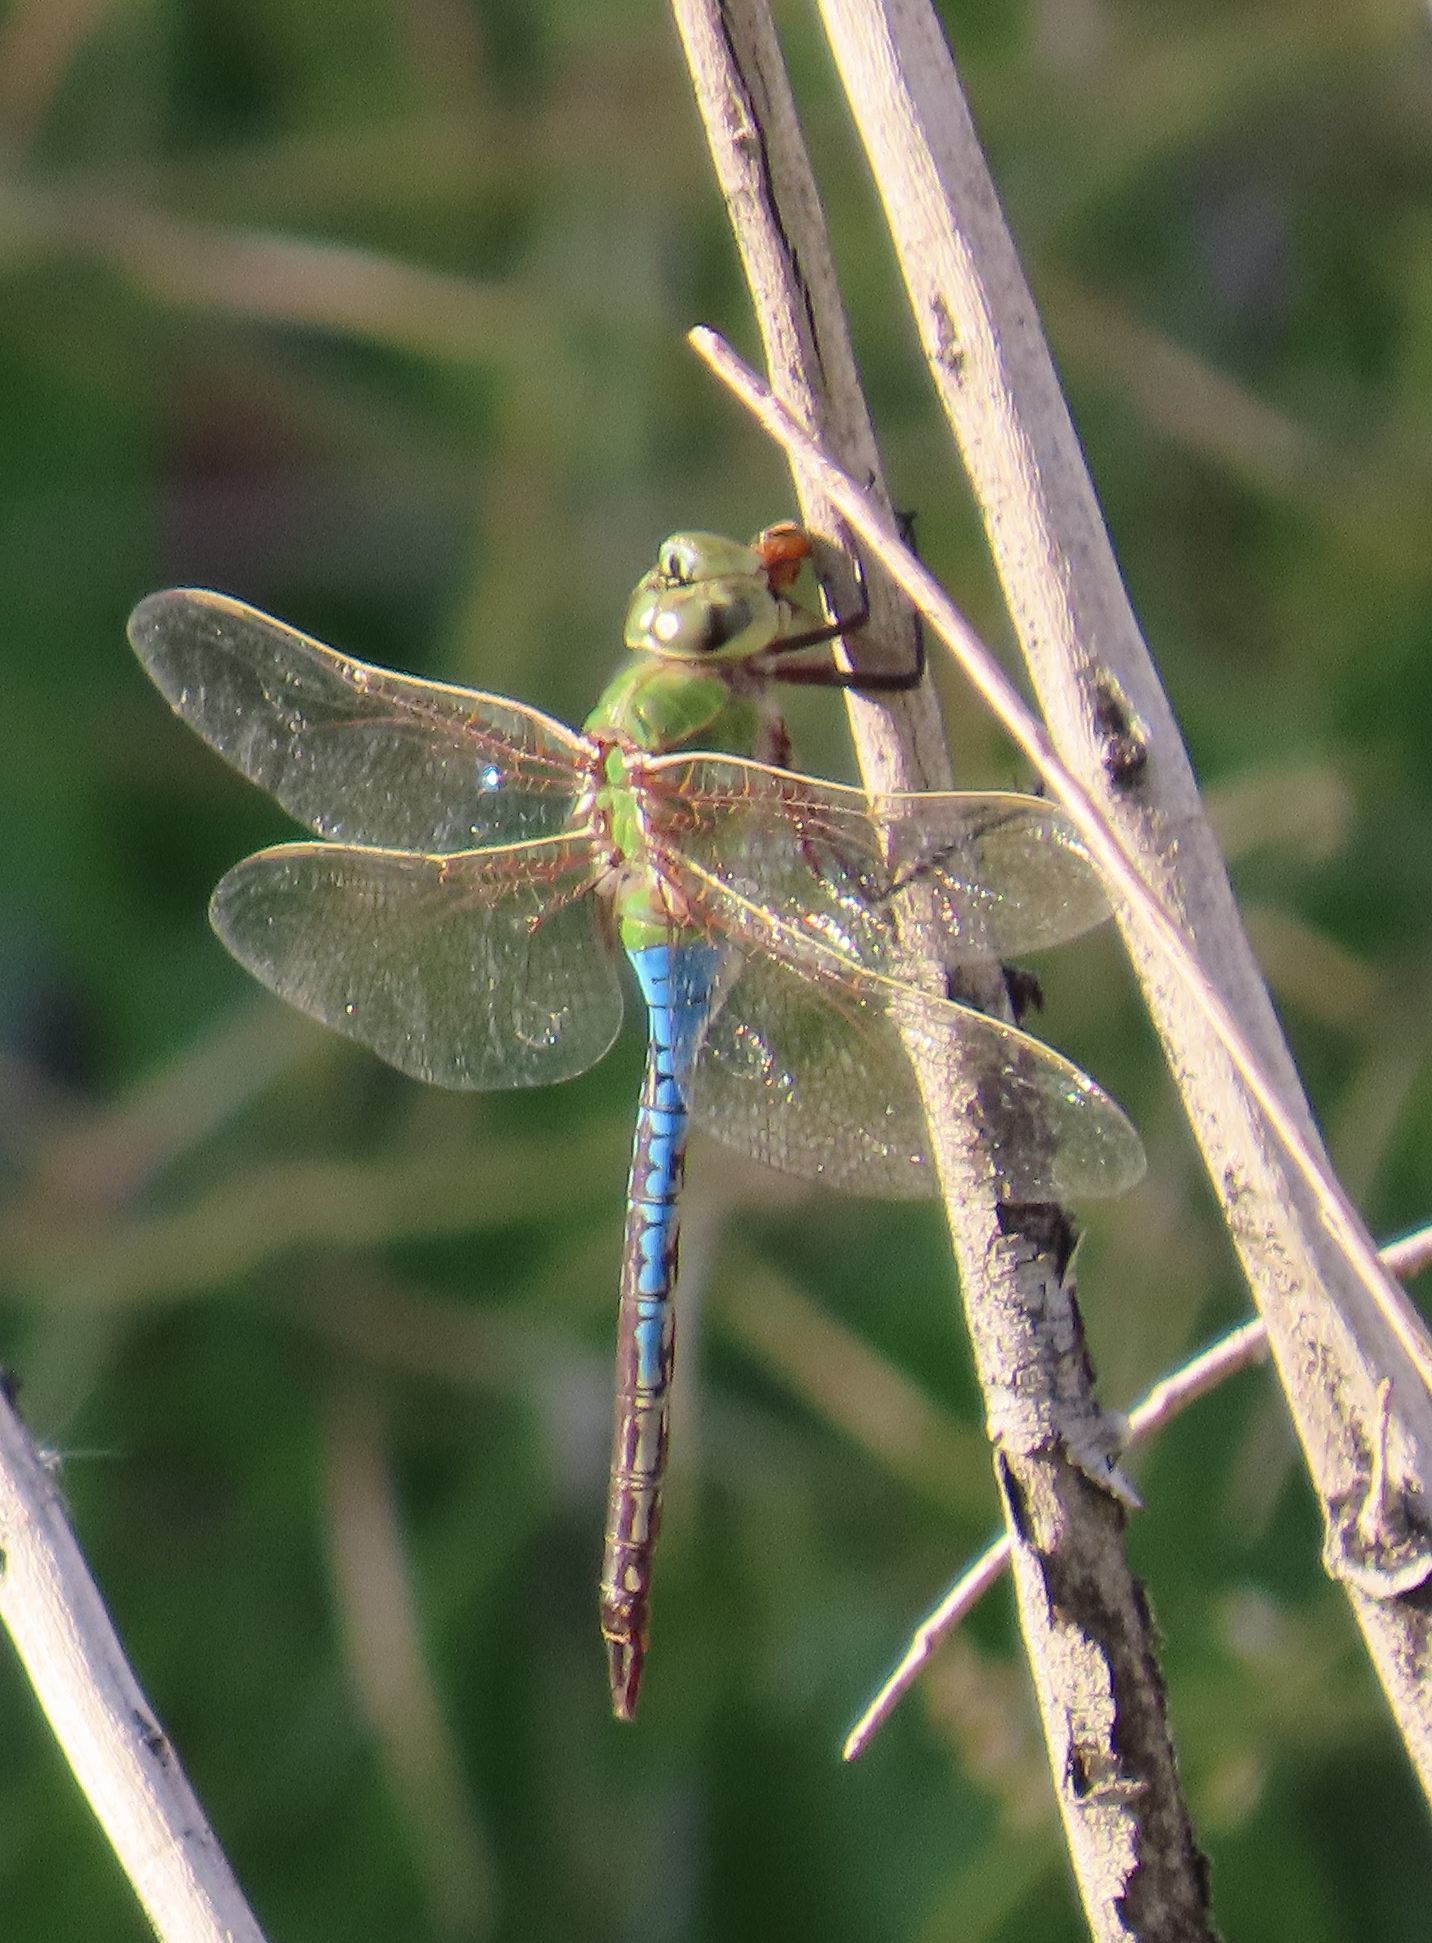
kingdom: Animalia
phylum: Arthropoda
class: Insecta
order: Odonata
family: Aeshnidae
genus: Anax
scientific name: Anax junius
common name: Common green darner
